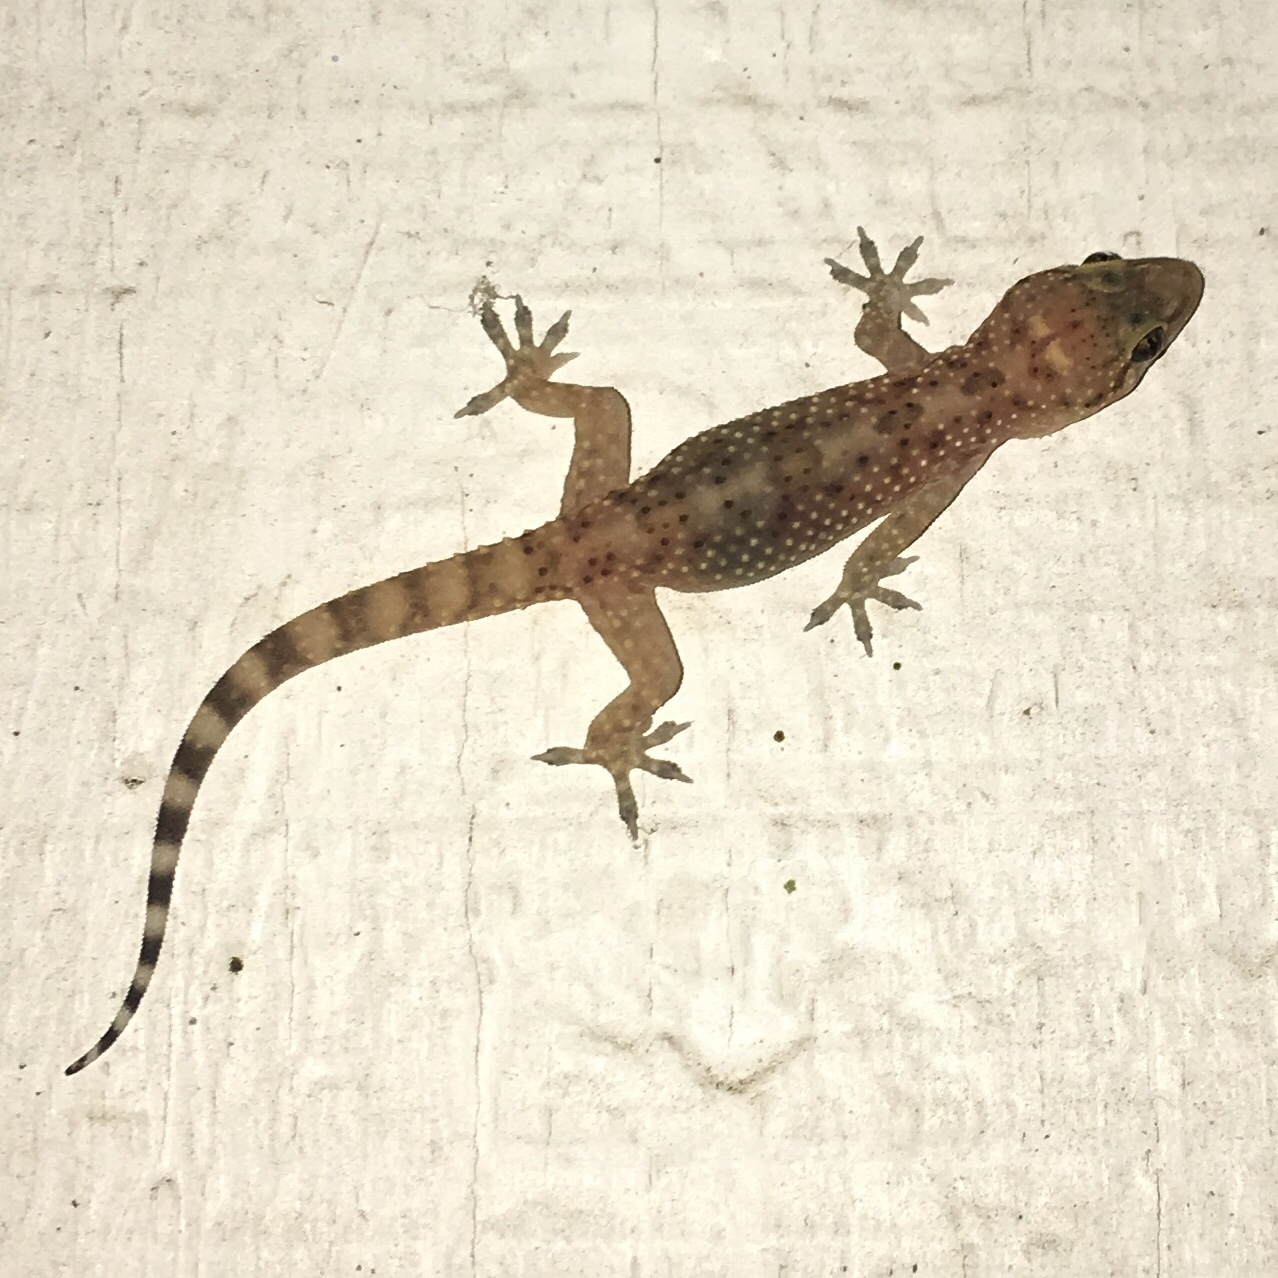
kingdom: Animalia
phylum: Chordata
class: Squamata
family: Gekkonidae
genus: Hemidactylus
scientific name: Hemidactylus turcicus
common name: Turkish gecko
